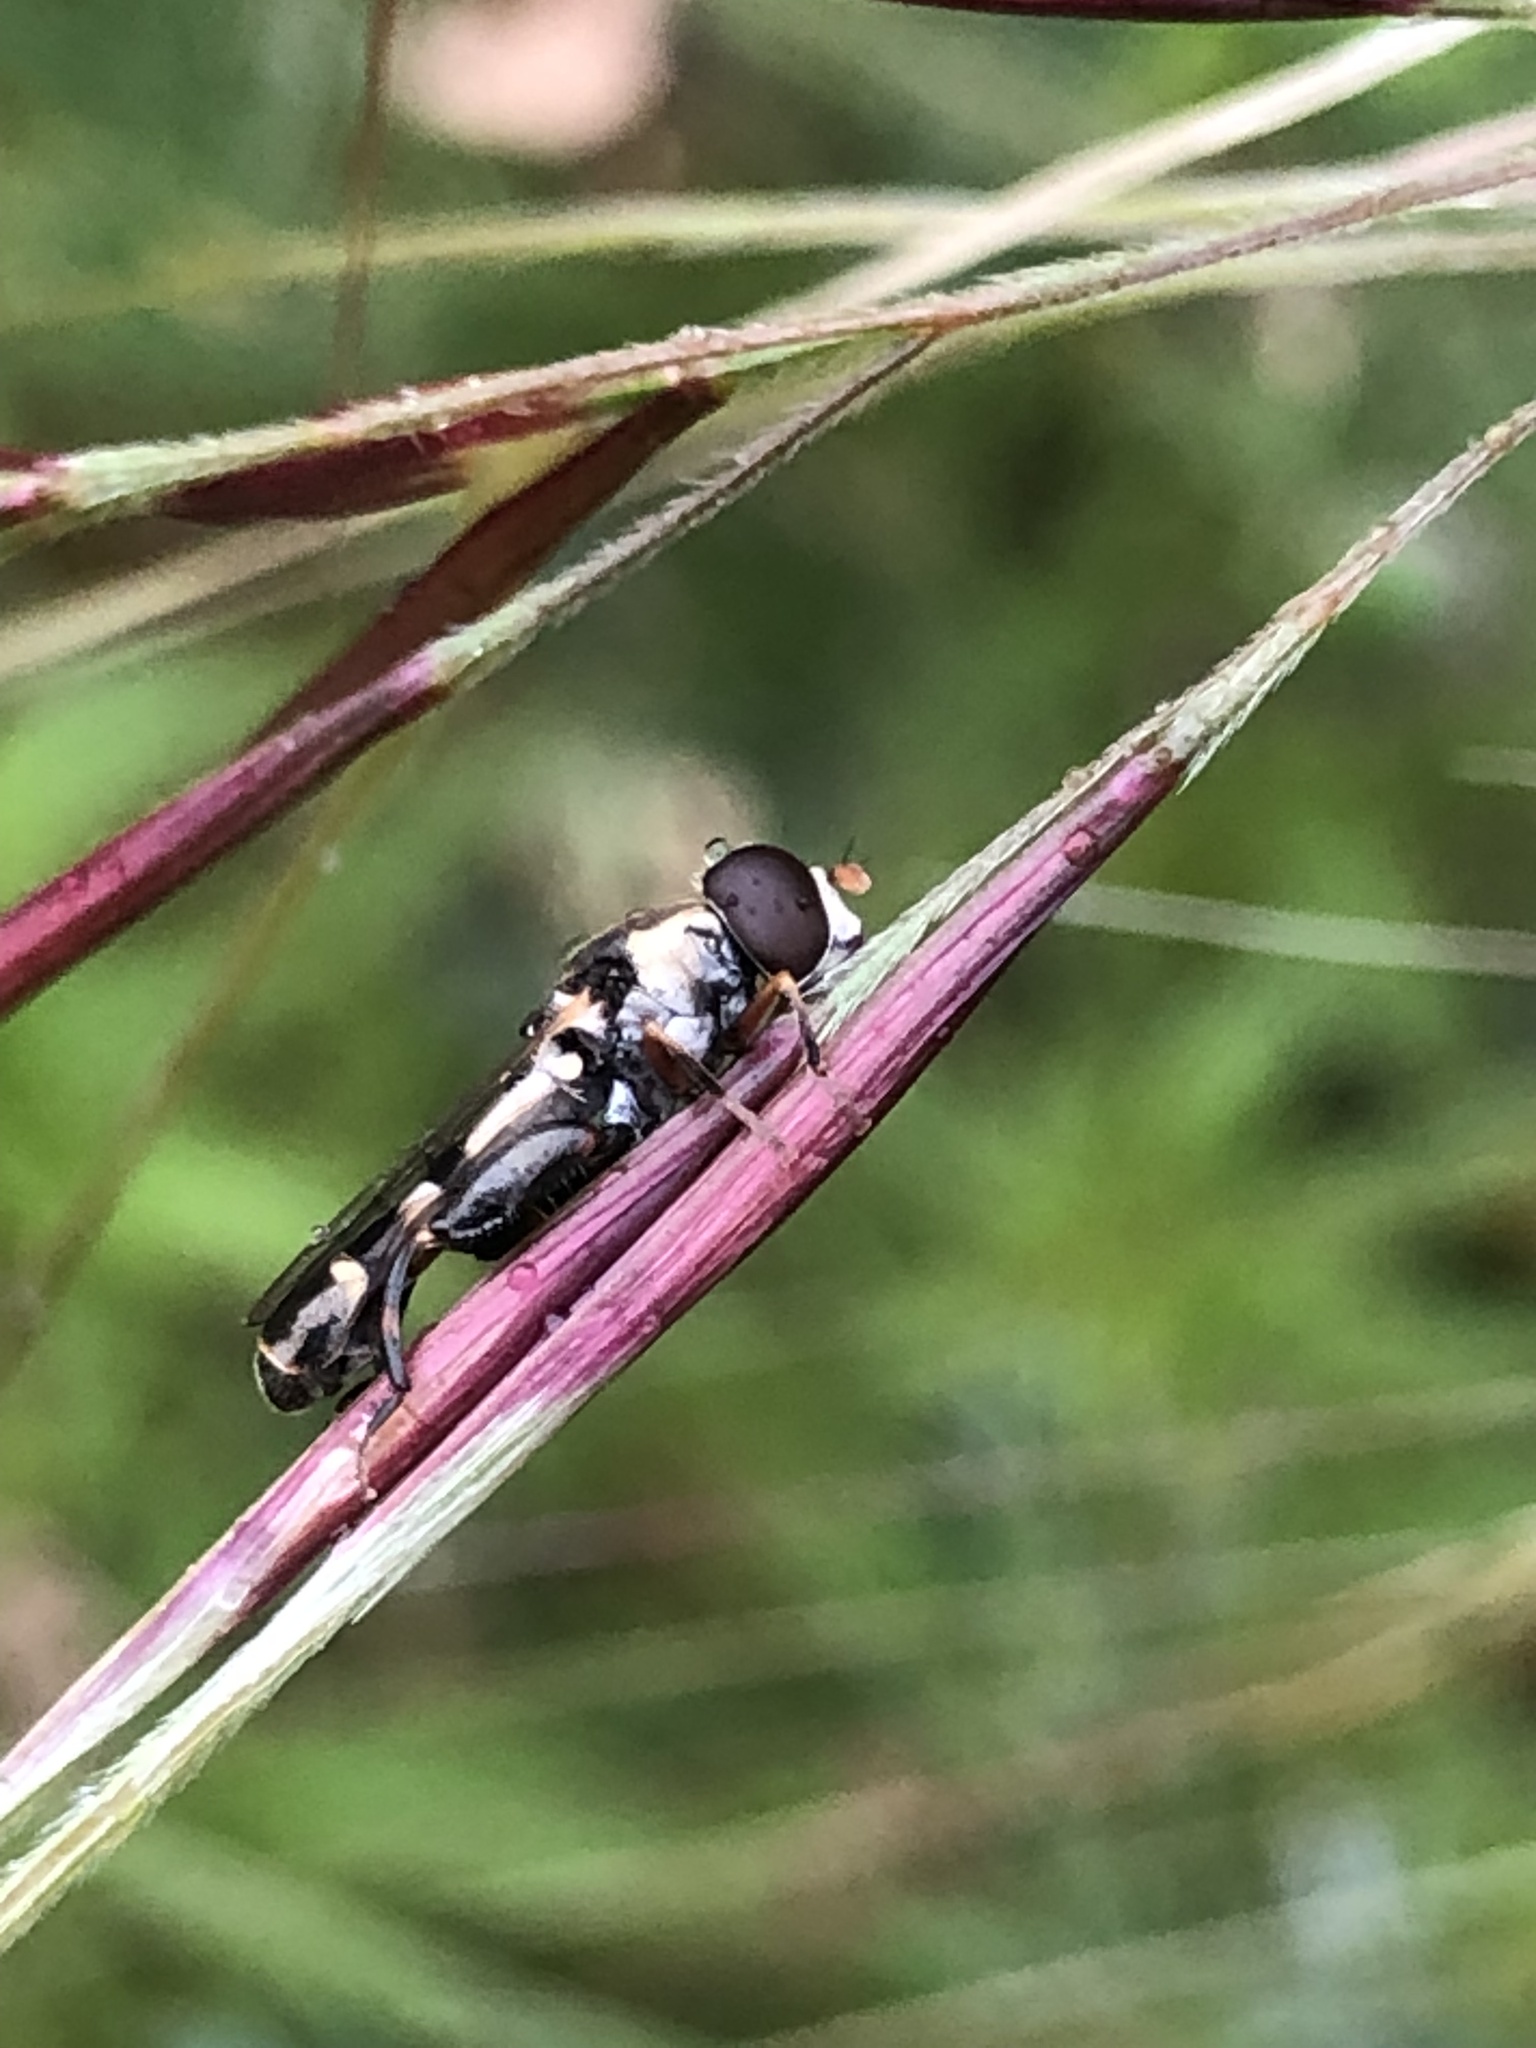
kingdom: Animalia
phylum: Arthropoda
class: Insecta
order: Diptera
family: Syrphidae
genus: Syritta
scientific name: Syritta pipiens
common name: Hover fly
